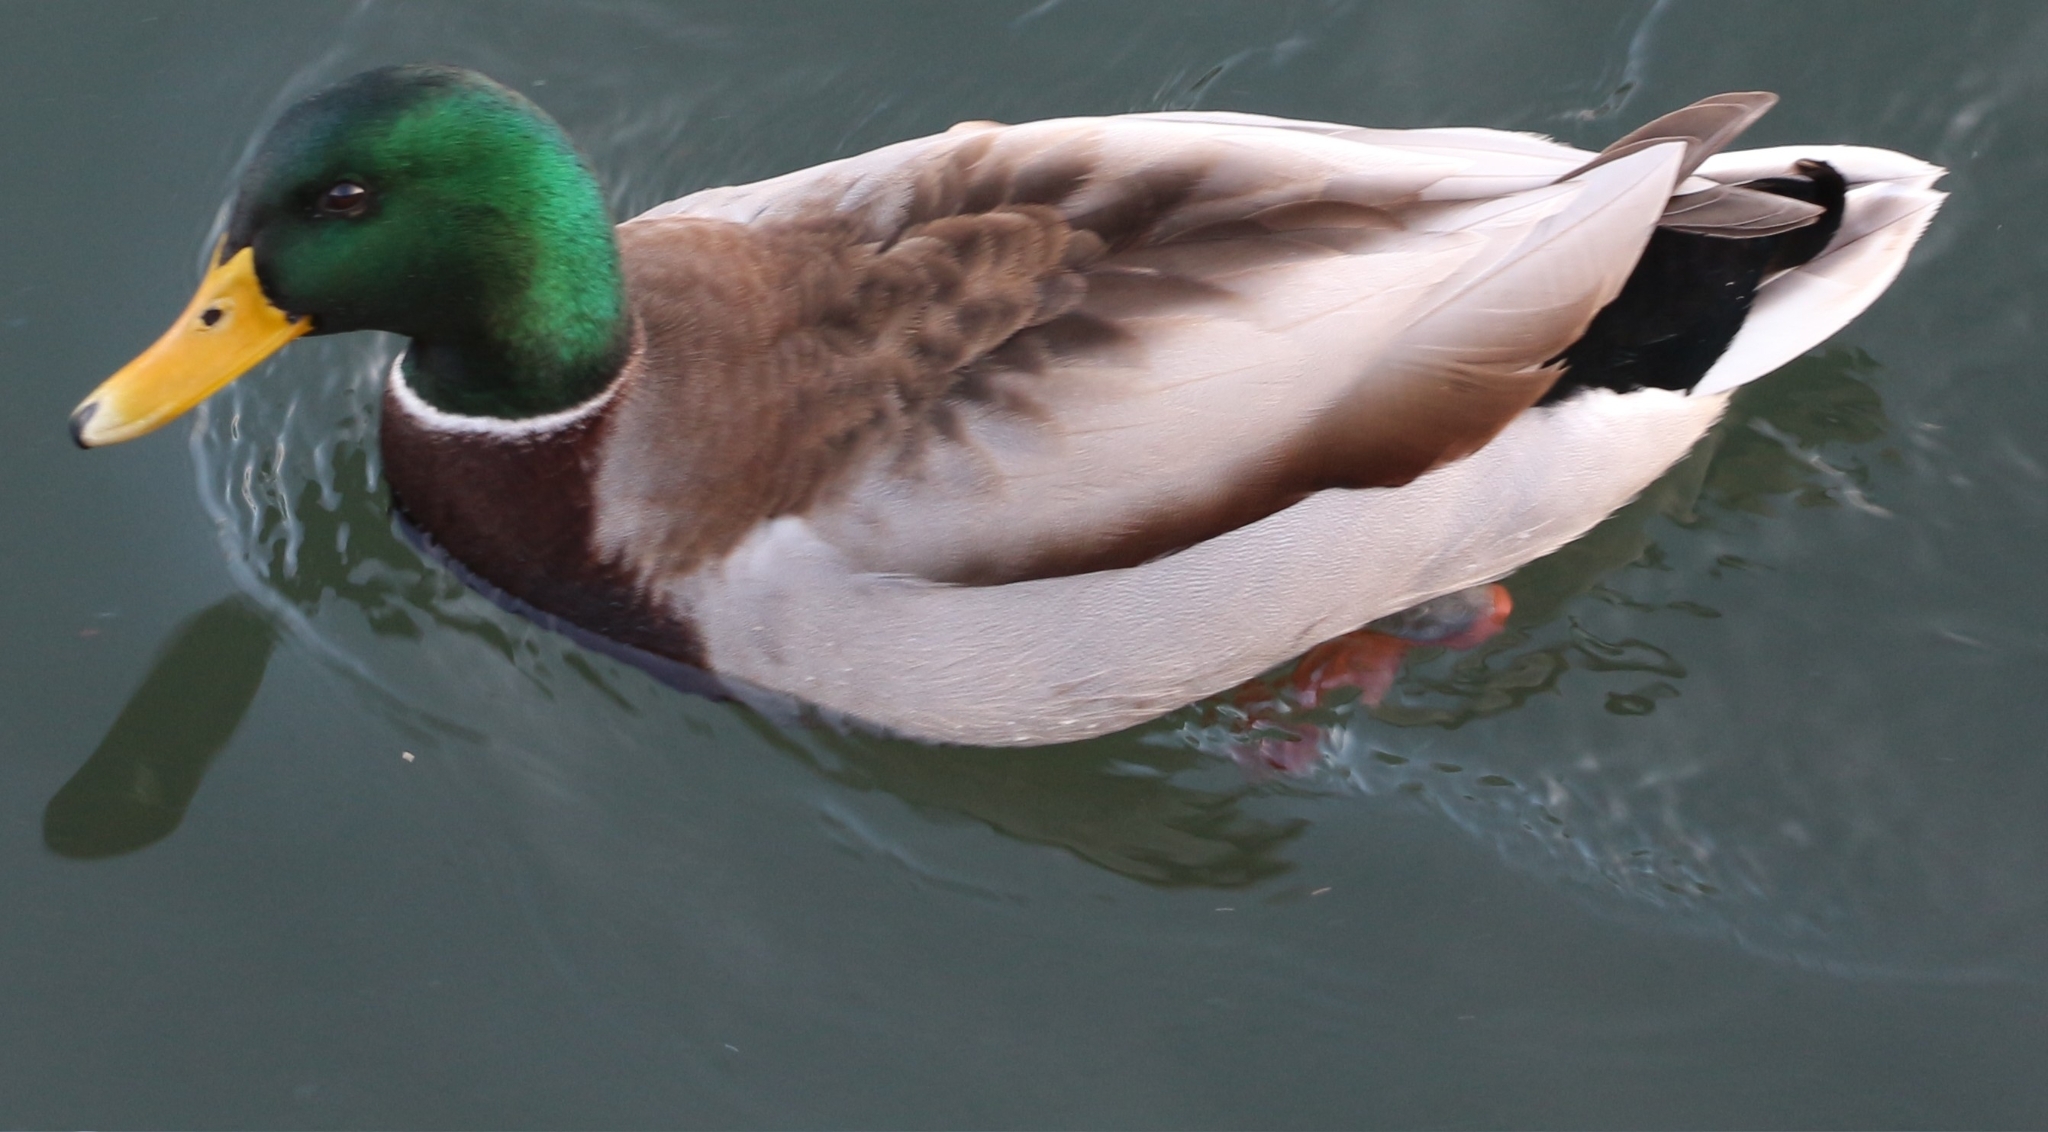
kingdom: Animalia
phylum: Chordata
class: Aves
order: Anseriformes
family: Anatidae
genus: Anas
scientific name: Anas platyrhynchos
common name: Mallard
